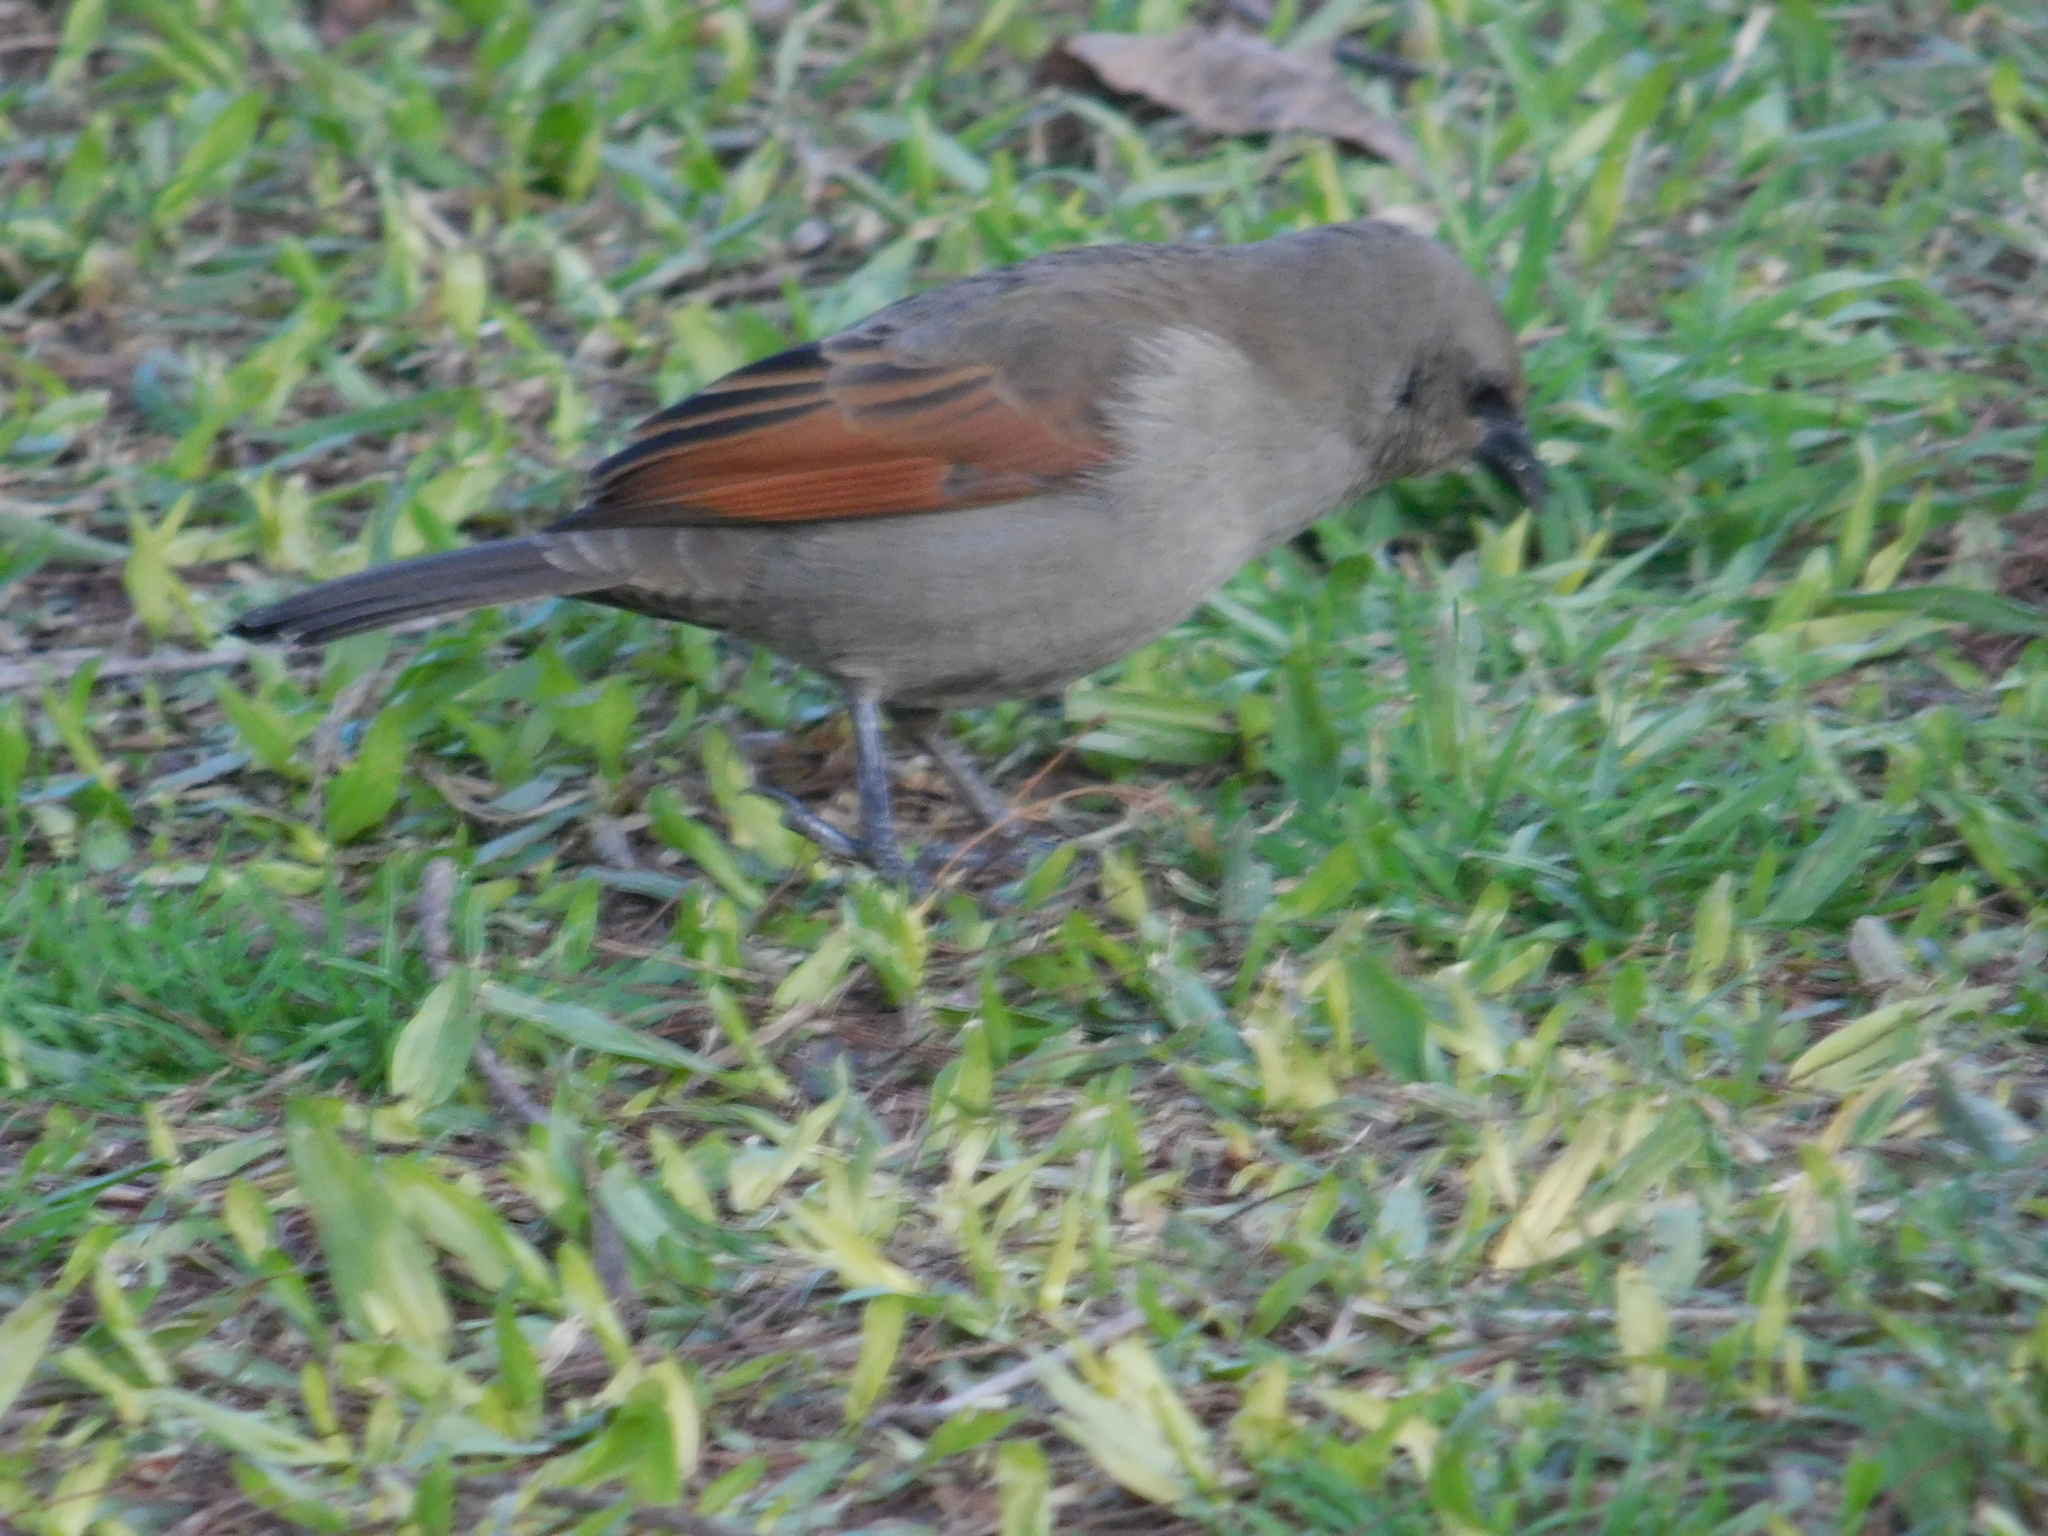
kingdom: Animalia
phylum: Chordata
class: Aves
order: Passeriformes
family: Icteridae
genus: Agelaioides
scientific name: Agelaioides badius
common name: Baywing
